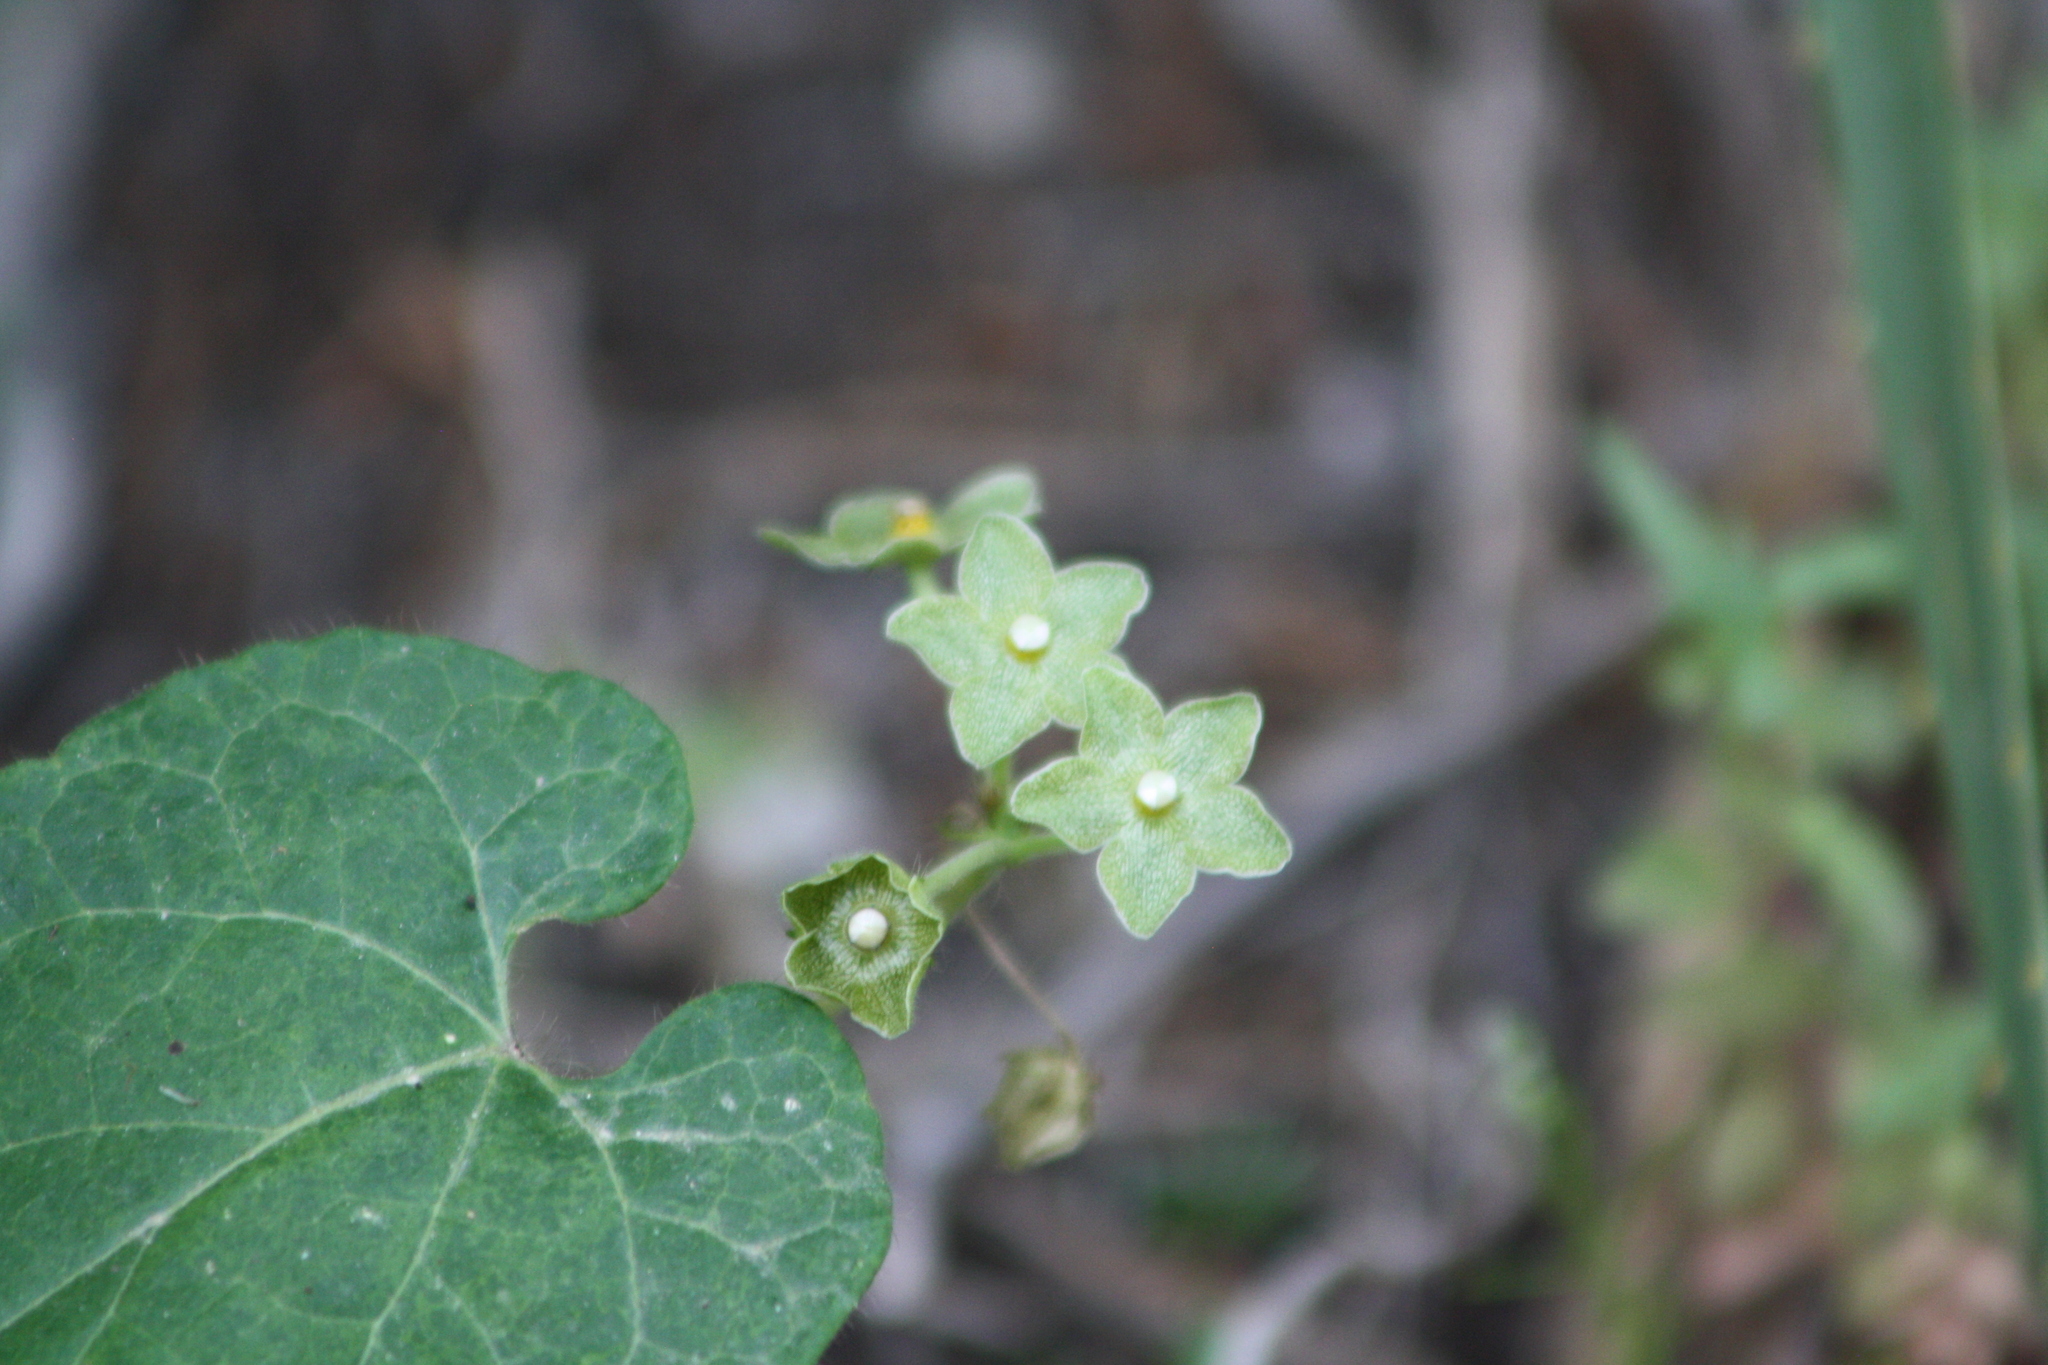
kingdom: Plantae
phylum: Tracheophyta
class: Magnoliopsida
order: Gentianales
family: Apocynaceae
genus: Dictyanthus
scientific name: Dictyanthus reticulatus
